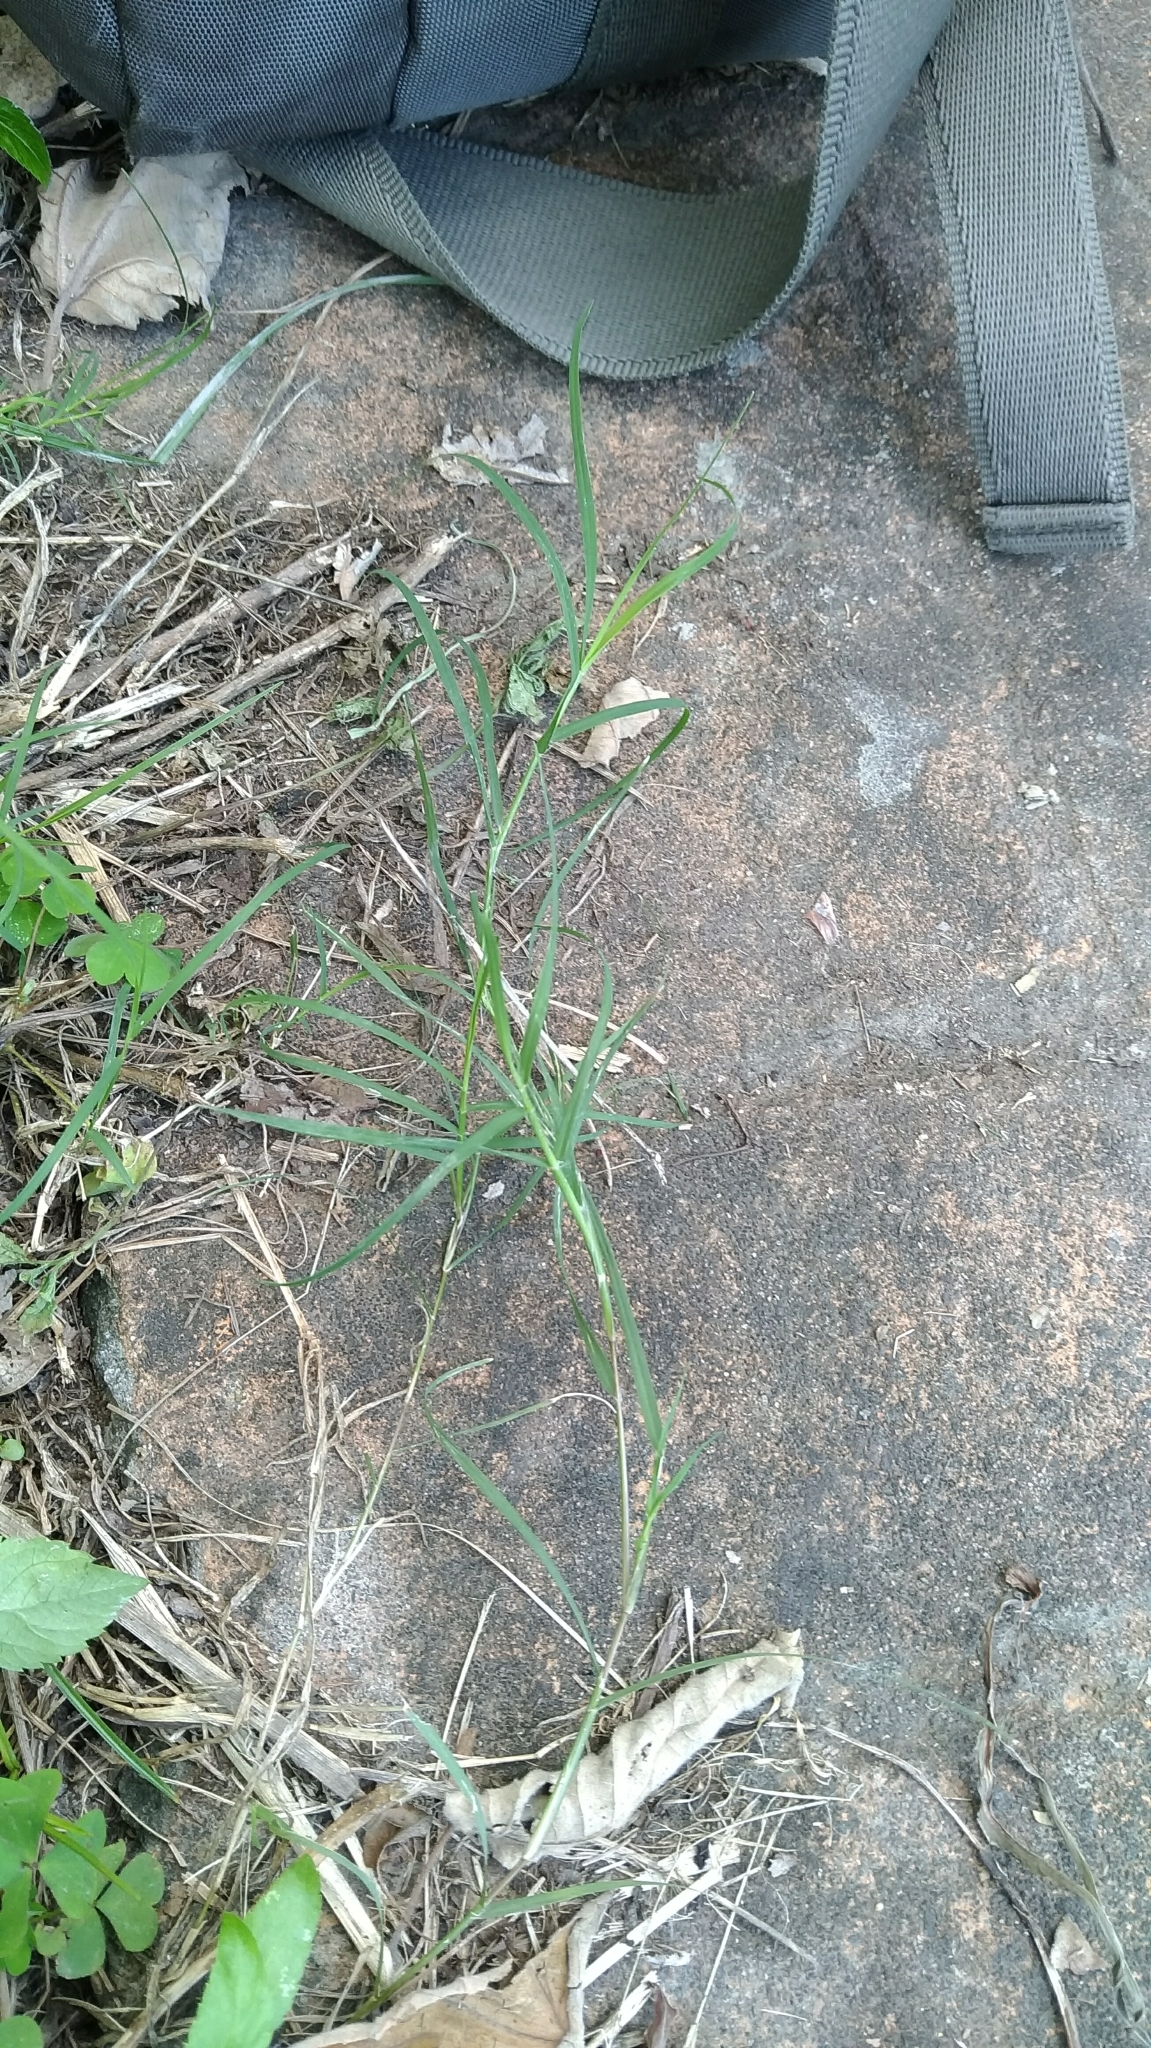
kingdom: Plantae
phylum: Tracheophyta
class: Liliopsida
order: Poales
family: Poaceae
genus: Cynodon
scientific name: Cynodon dactylon
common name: Bermuda grass
